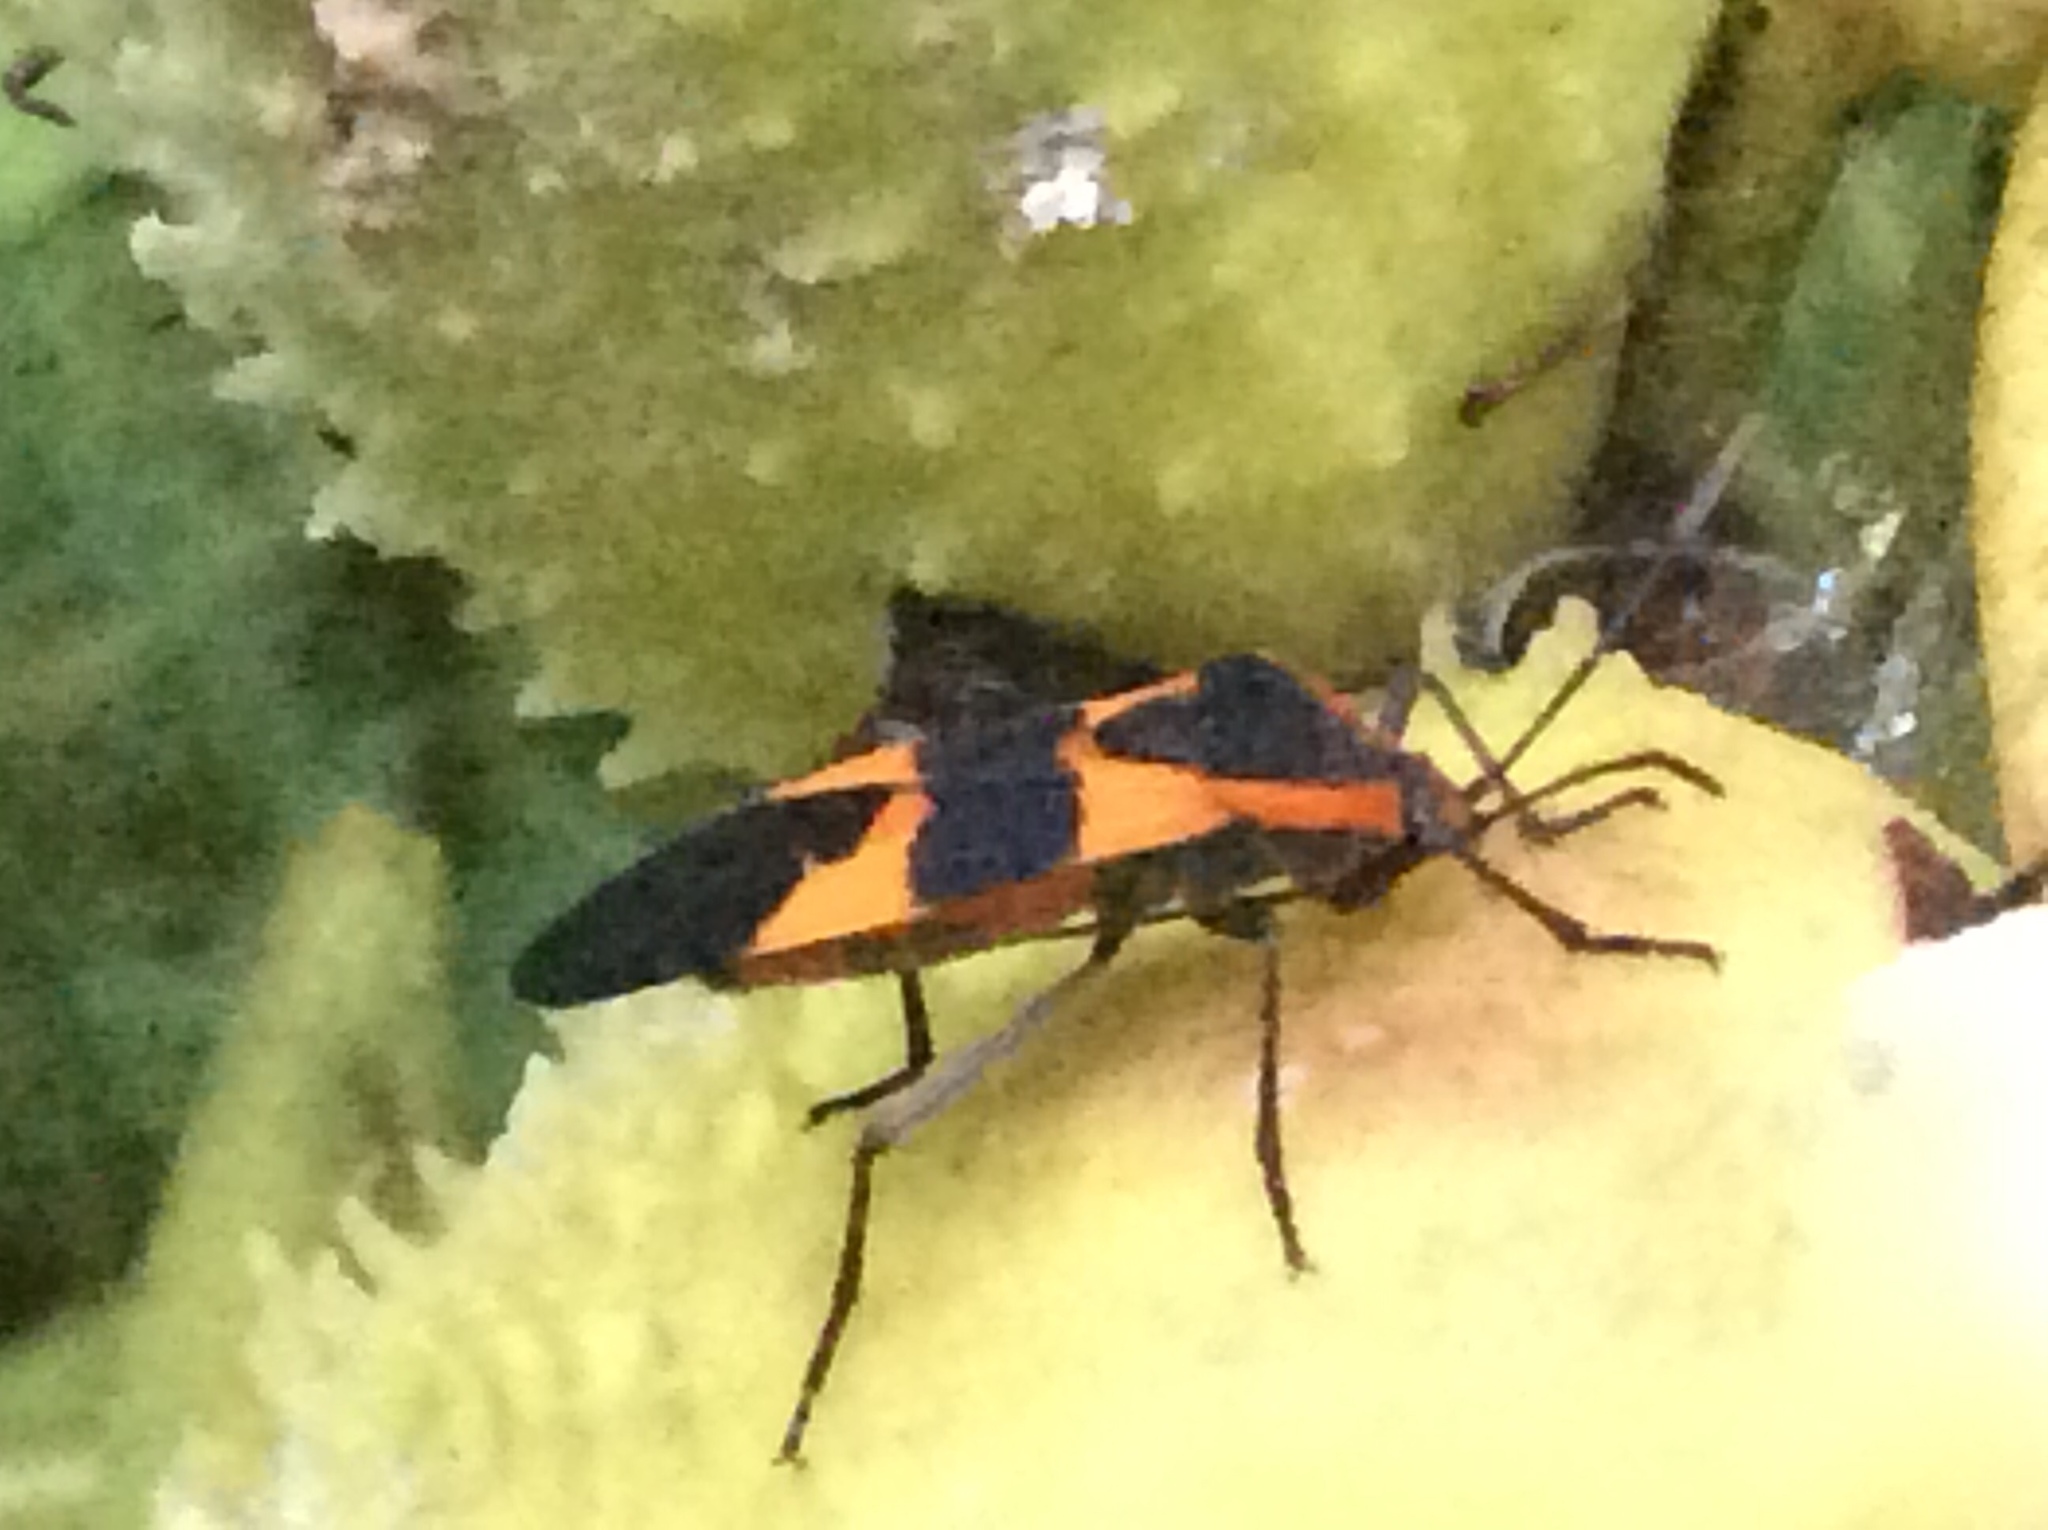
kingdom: Animalia
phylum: Arthropoda
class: Insecta
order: Hemiptera
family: Lygaeidae
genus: Oncopeltus
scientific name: Oncopeltus fasciatus
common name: Large milkweed bug
